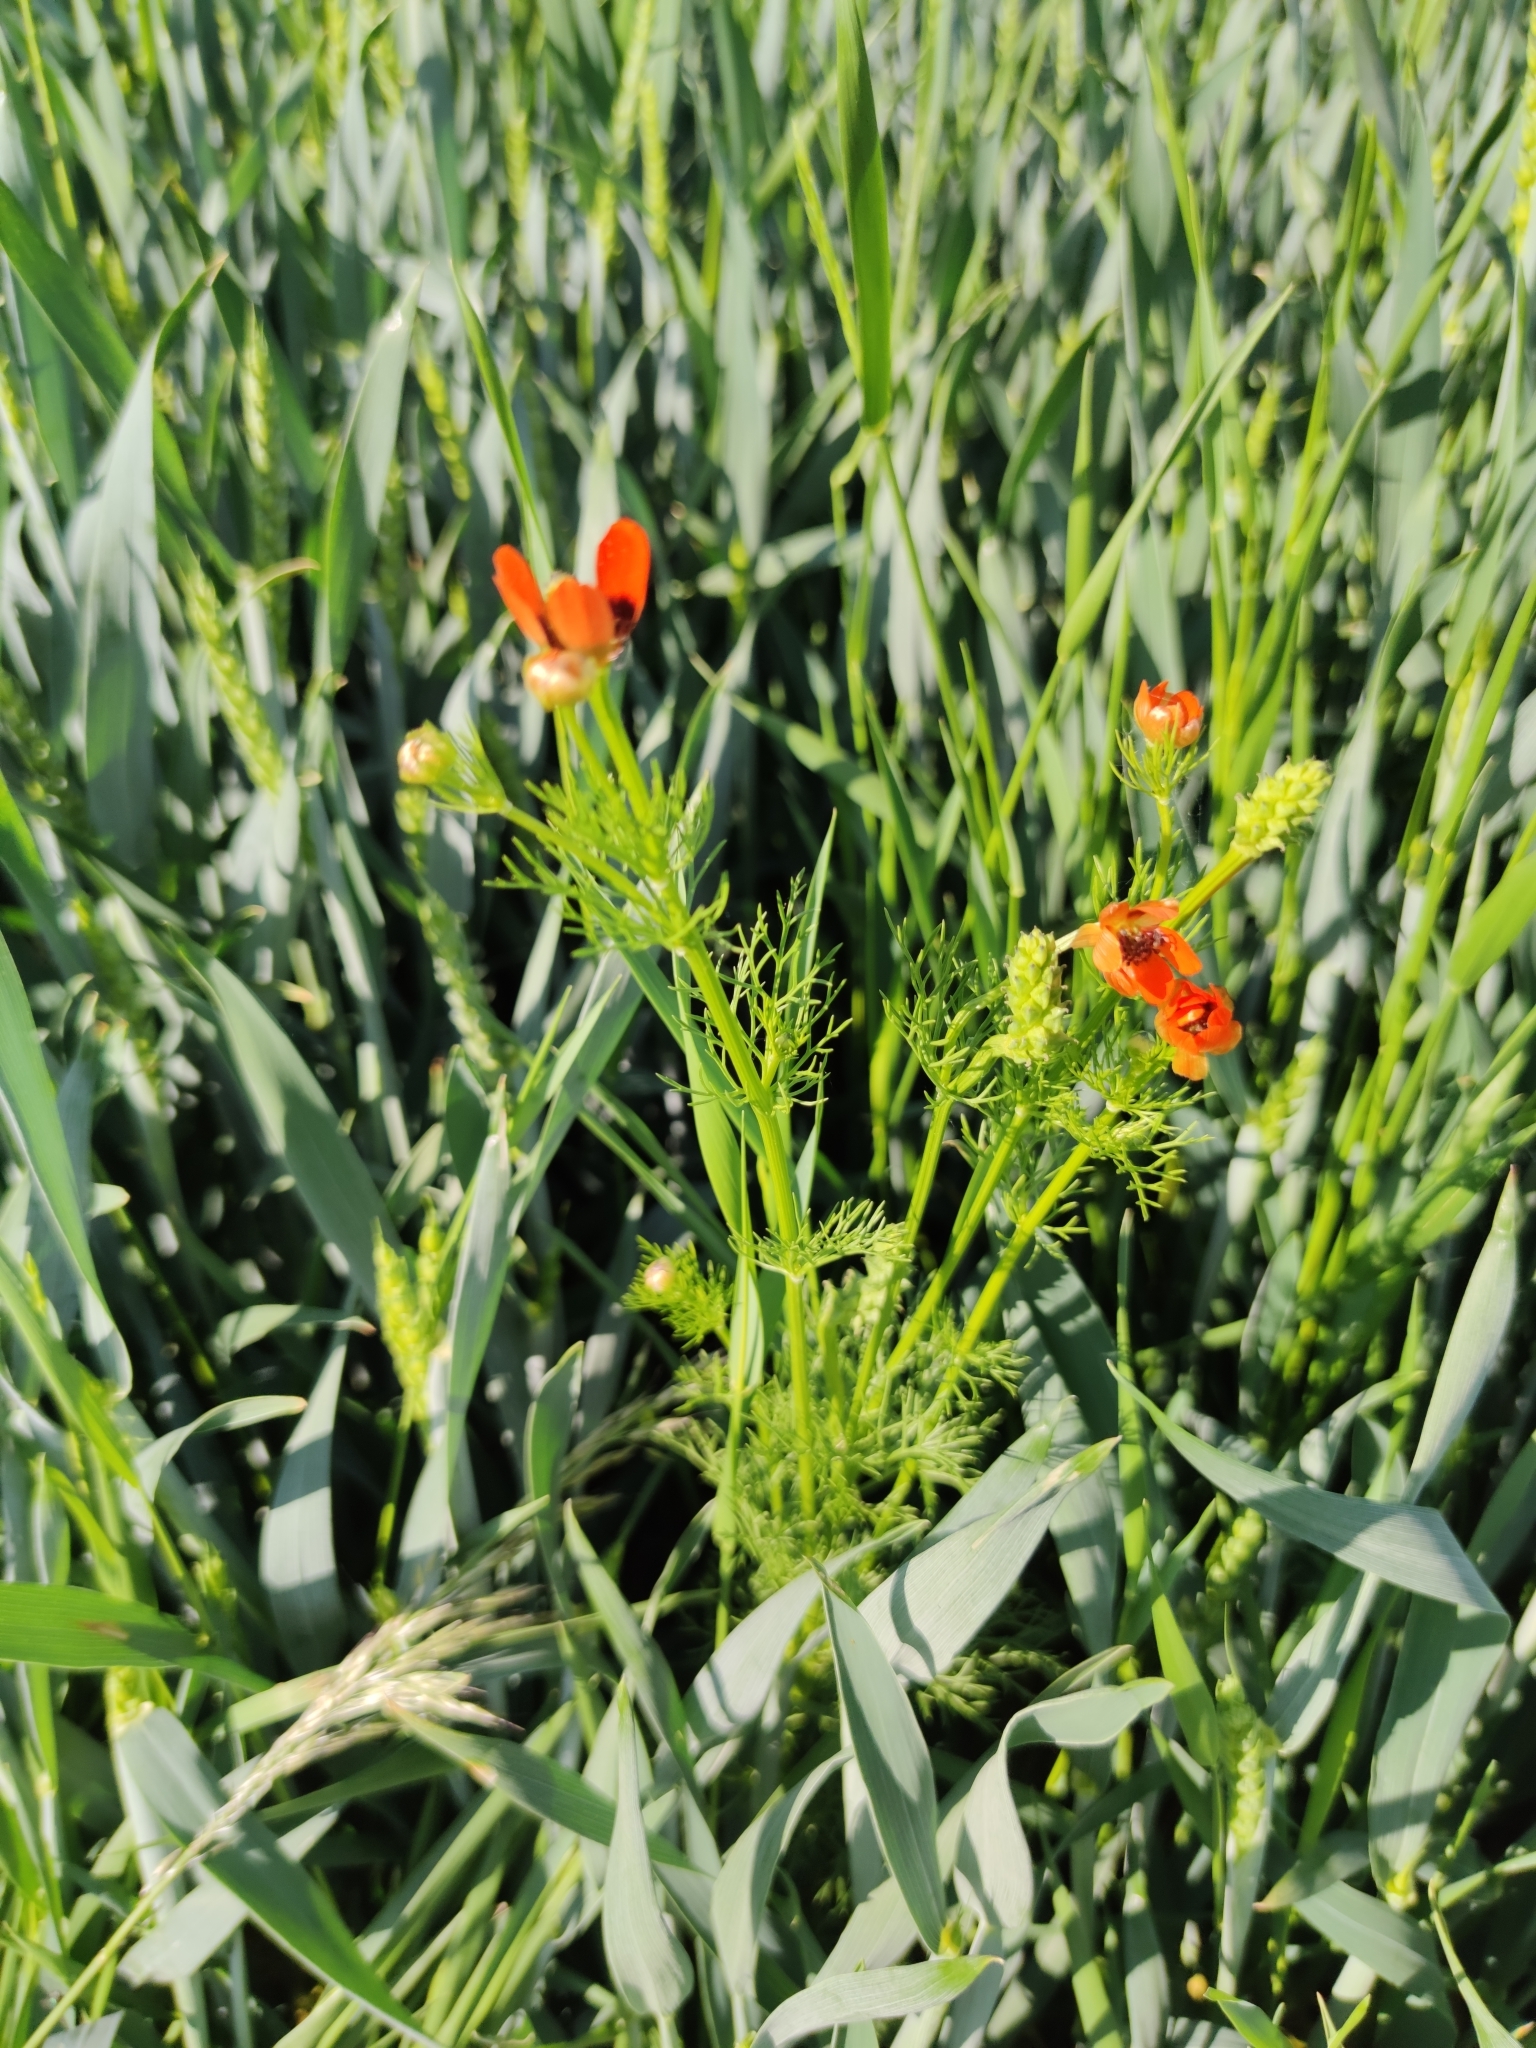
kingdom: Plantae
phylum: Tracheophyta
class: Magnoliopsida
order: Ranunculales
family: Ranunculaceae
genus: Adonis
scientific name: Adonis aestivalis
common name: Summer pheasant's-eye
